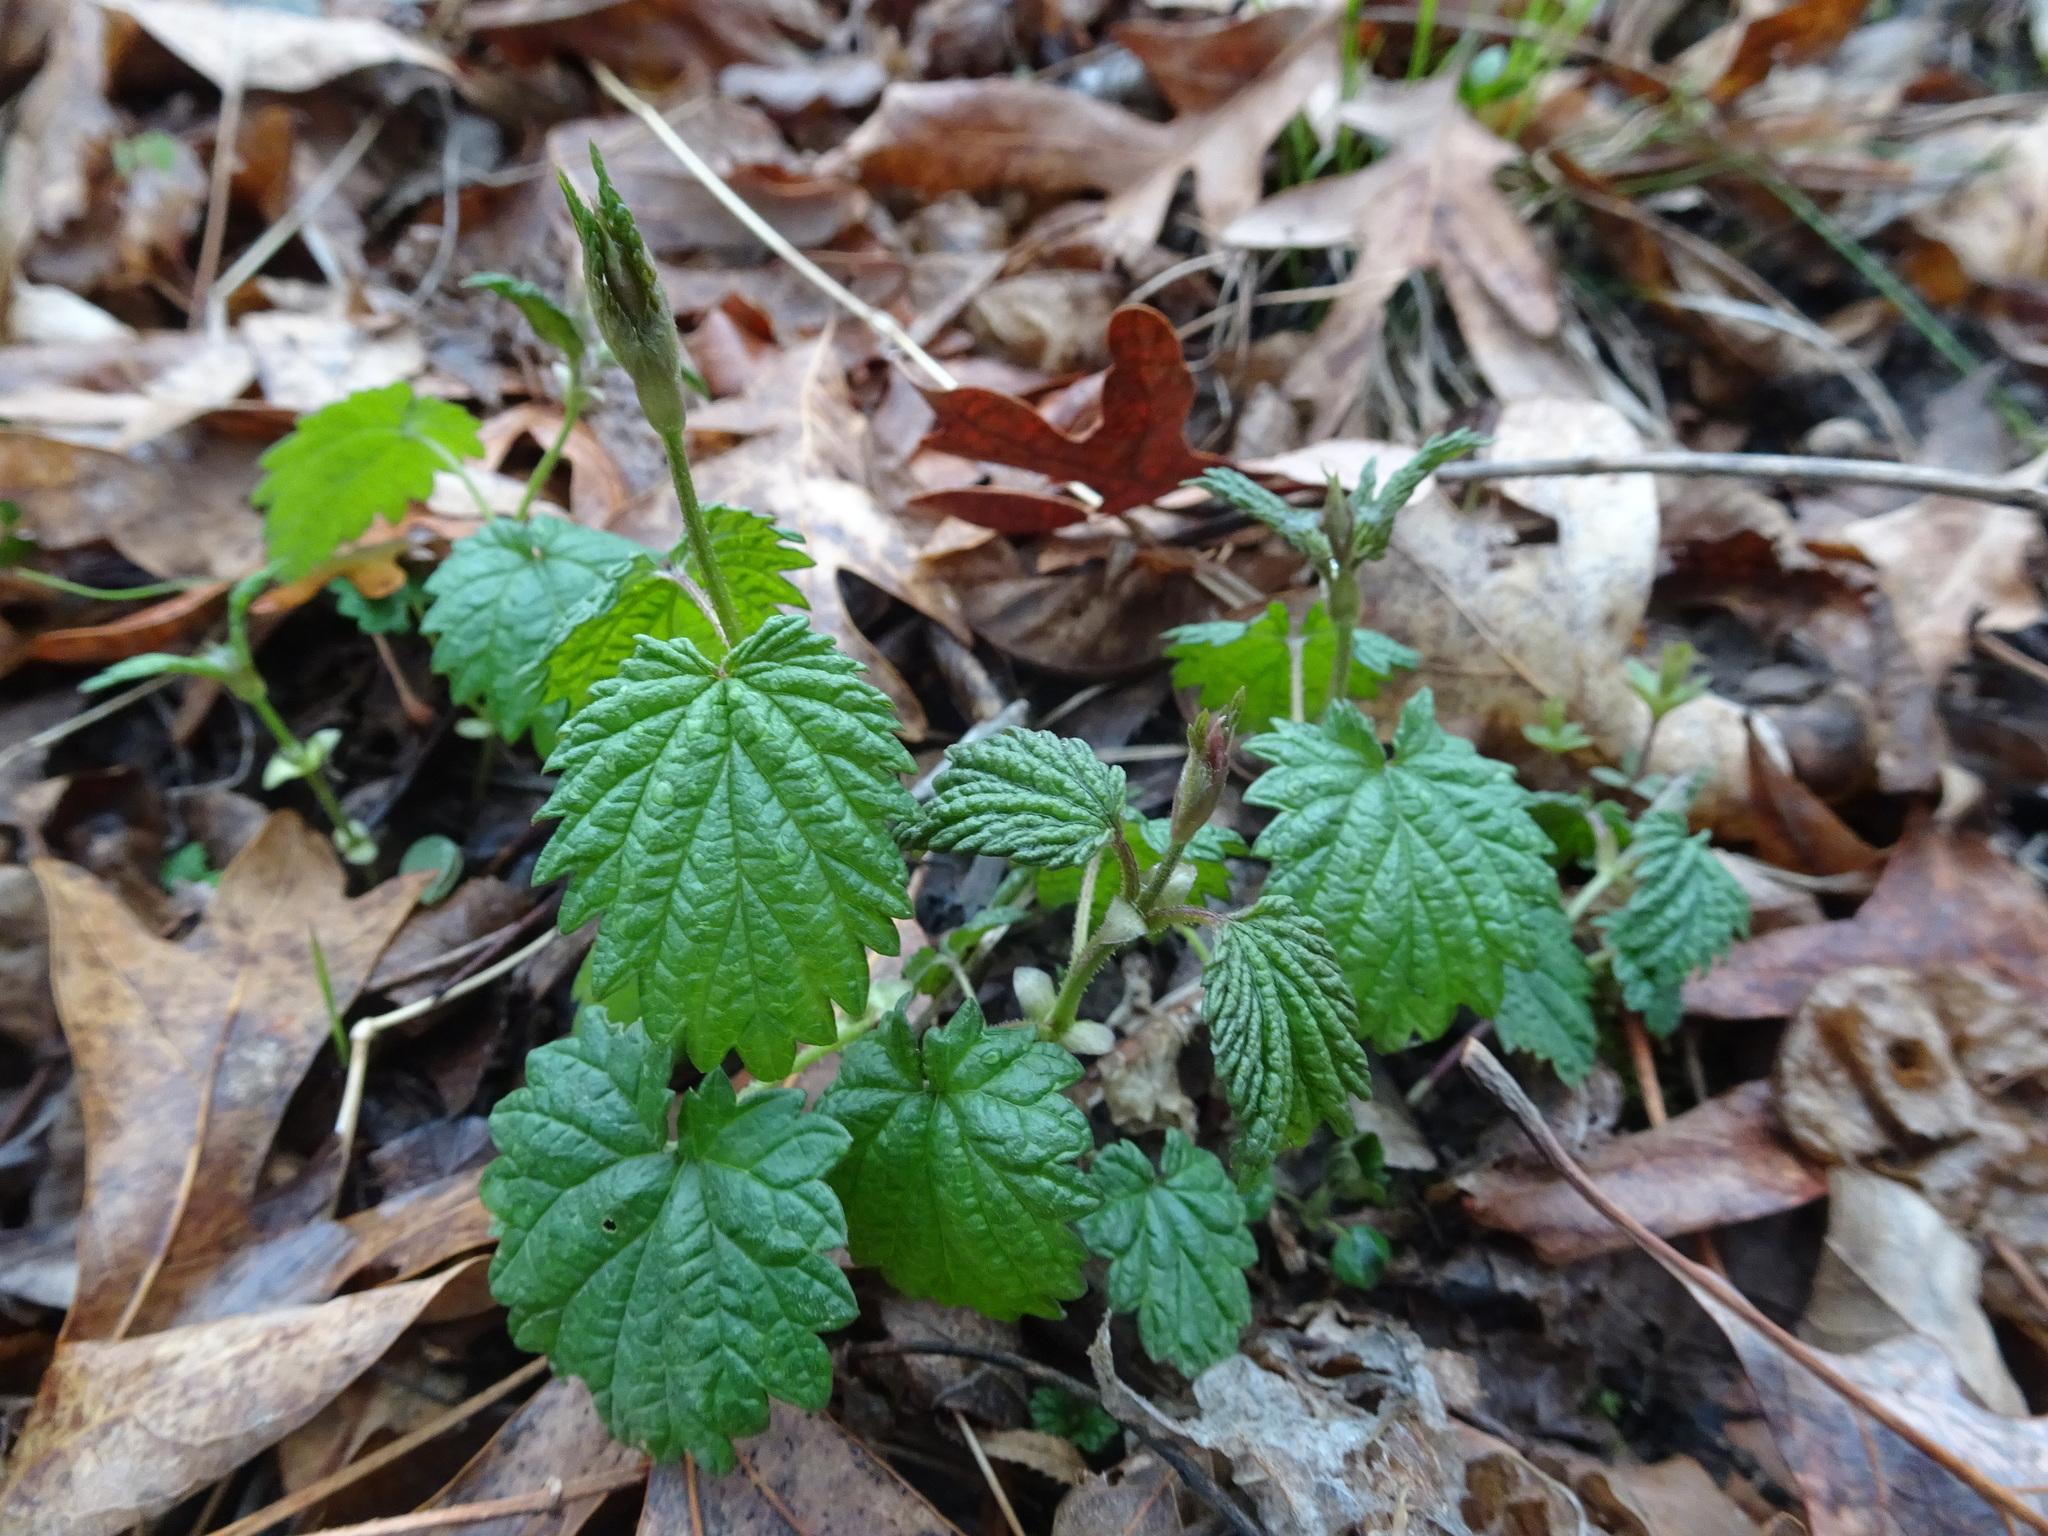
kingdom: Plantae
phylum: Tracheophyta
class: Magnoliopsida
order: Rosales
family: Cannabaceae
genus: Humulus
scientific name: Humulus lupulus
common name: Hop
